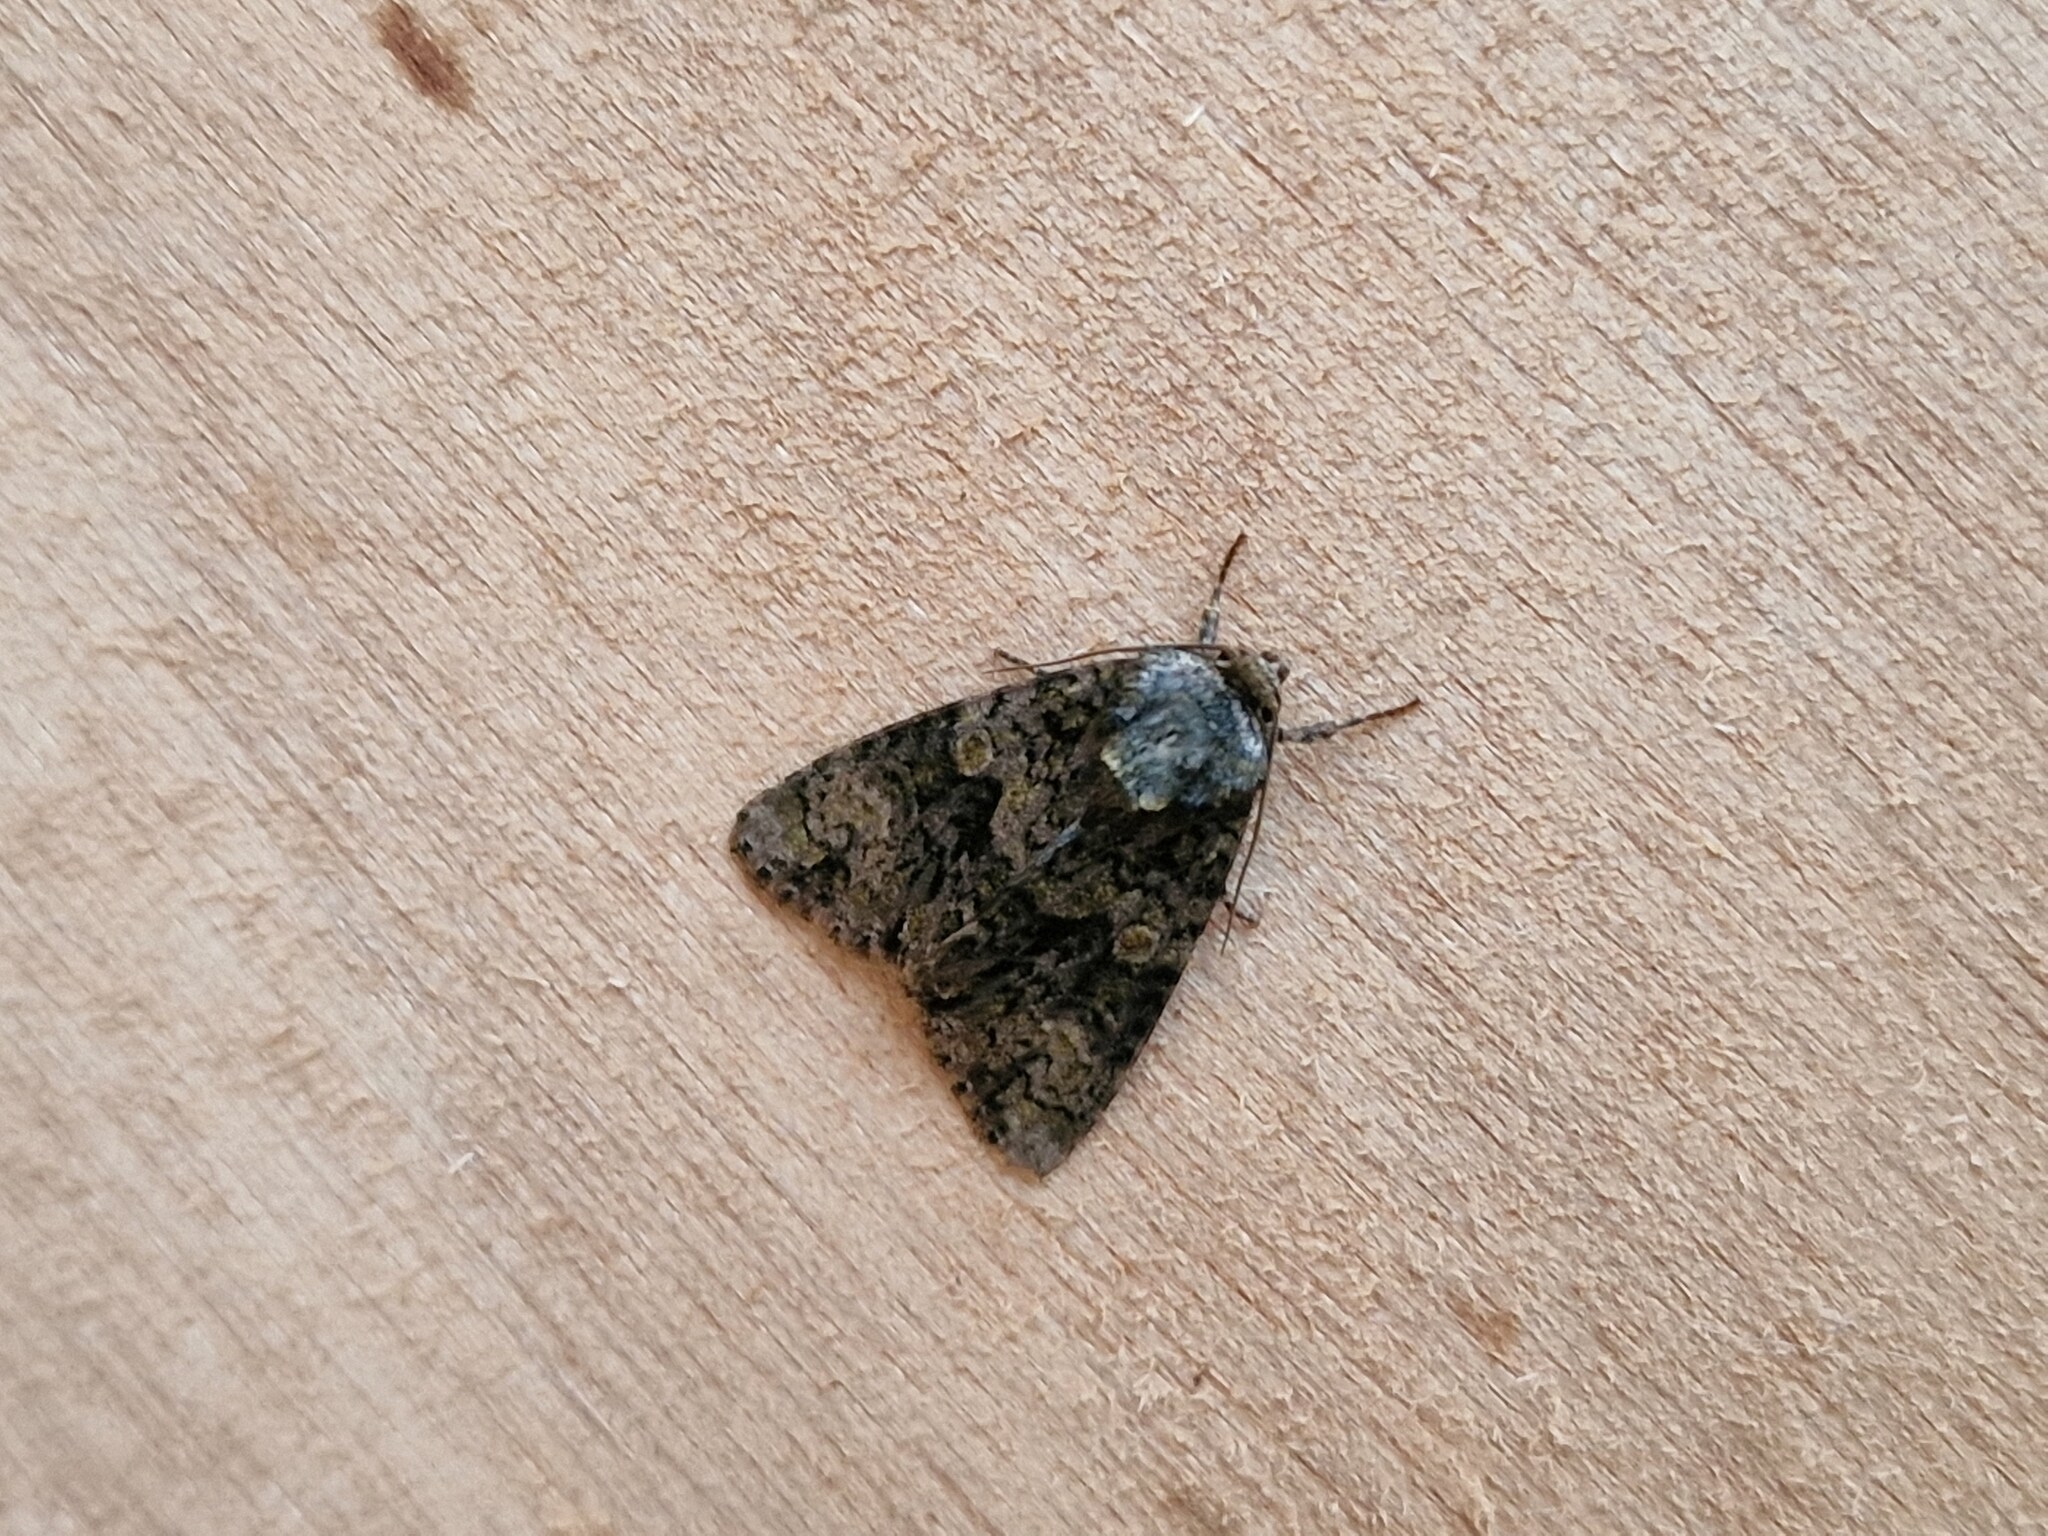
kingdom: Animalia
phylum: Arthropoda
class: Insecta
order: Lepidoptera
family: Noctuidae
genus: Craniophora
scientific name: Craniophora ligustri
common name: Coronet
